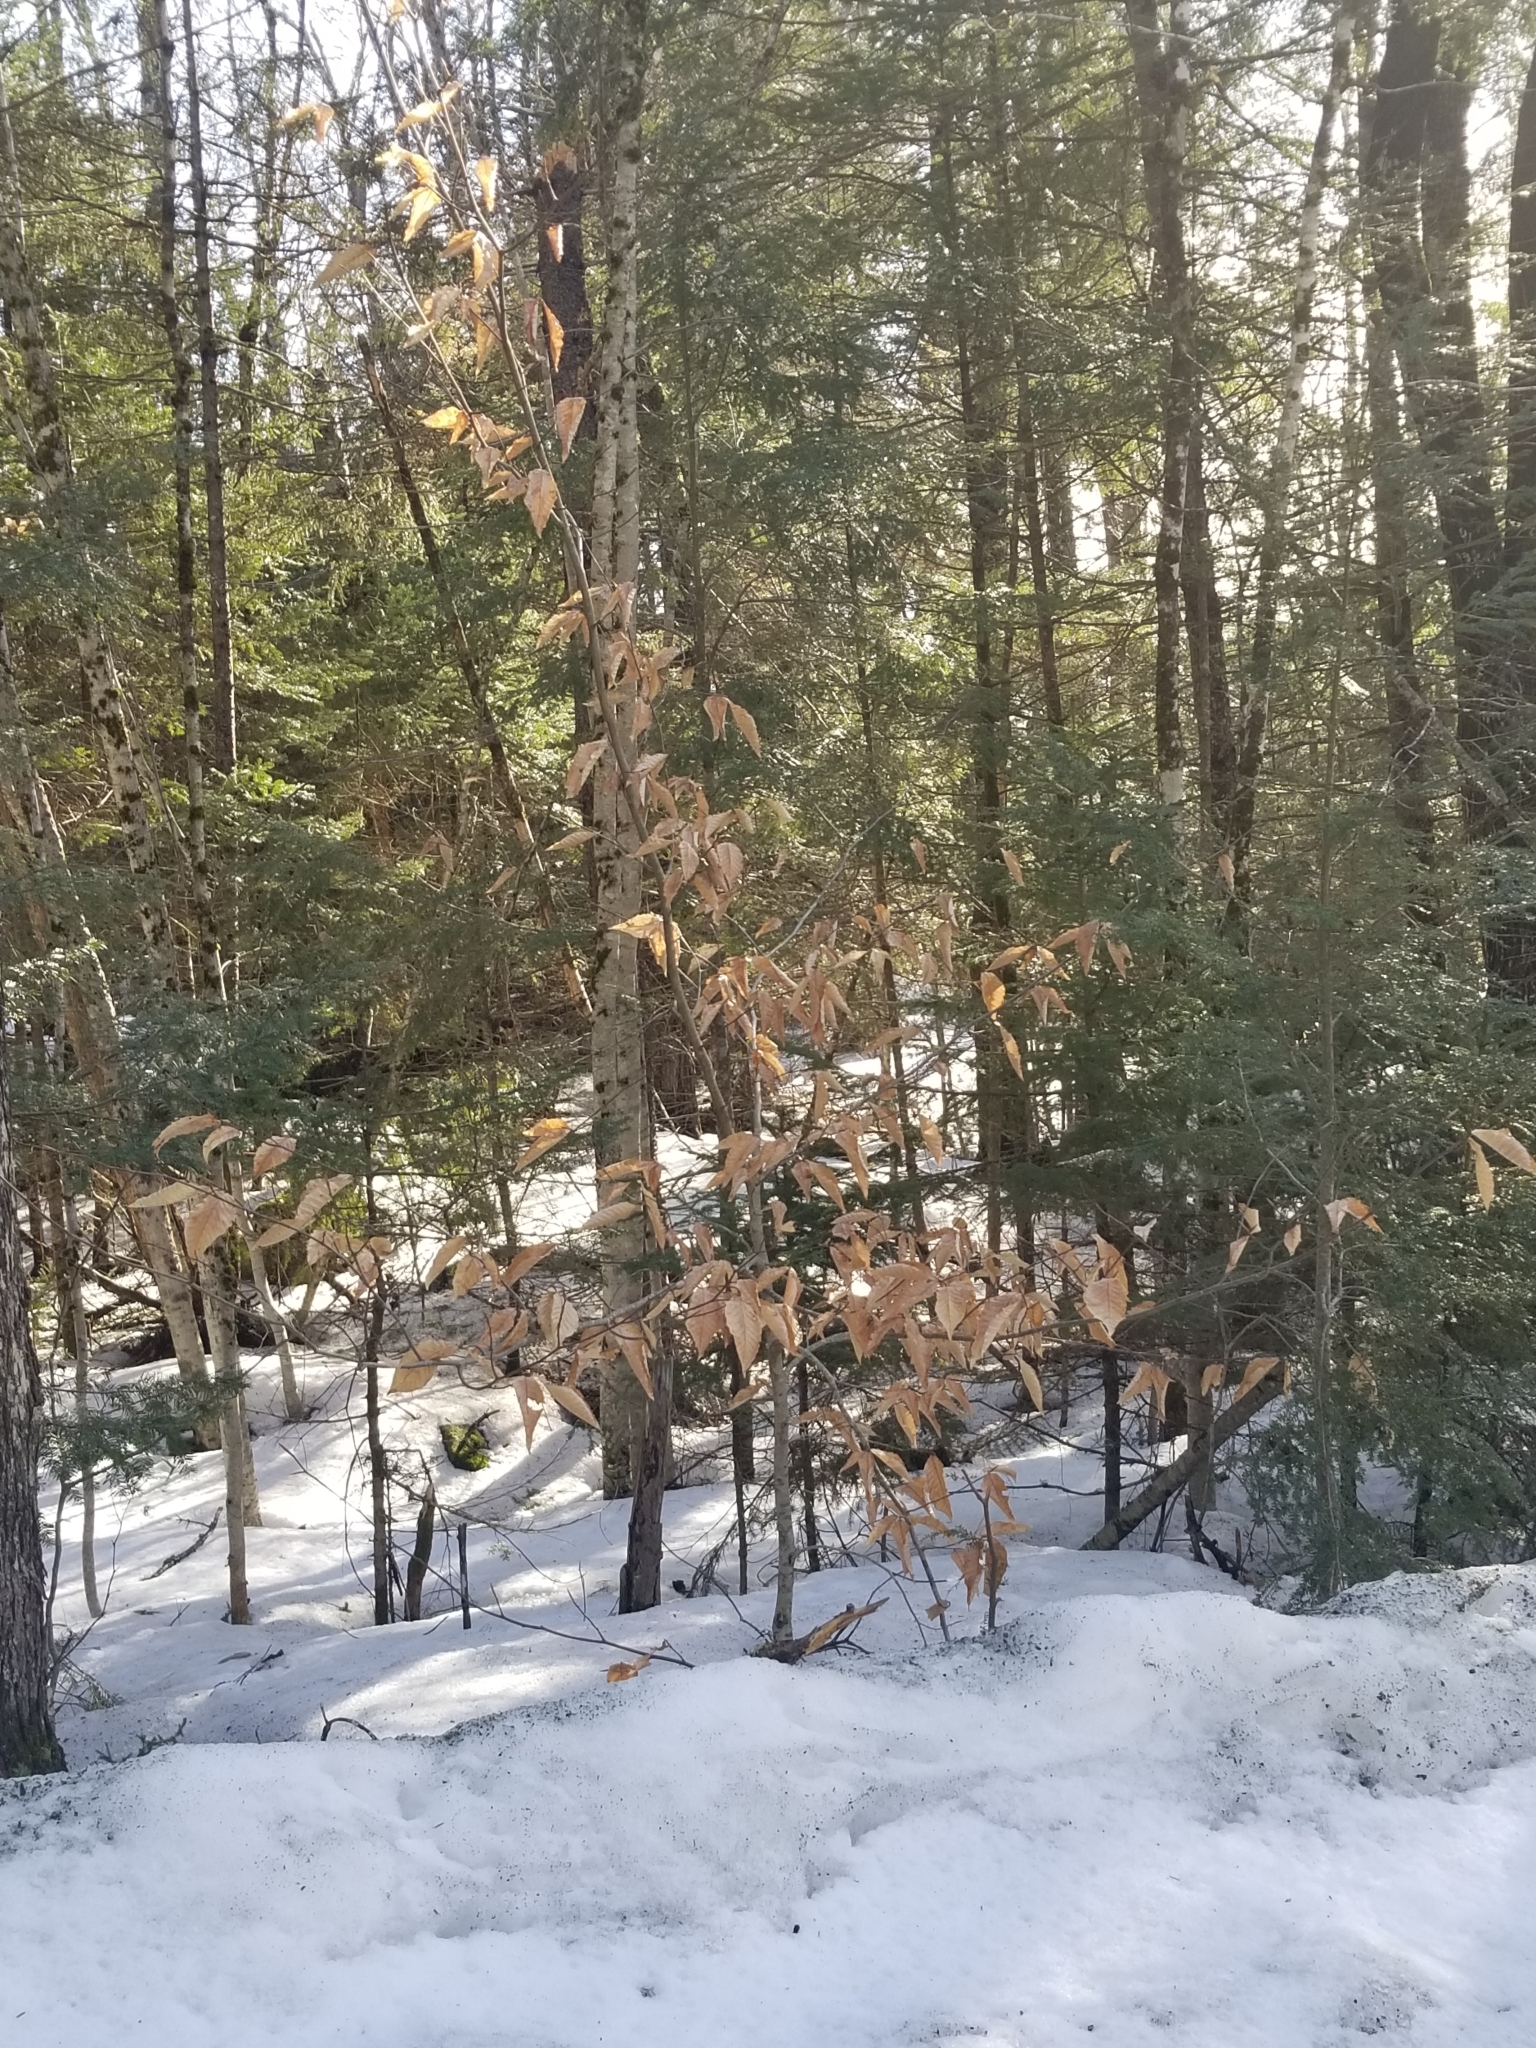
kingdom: Plantae
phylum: Tracheophyta
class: Magnoliopsida
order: Fagales
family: Fagaceae
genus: Fagus
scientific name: Fagus grandifolia
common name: American beech
